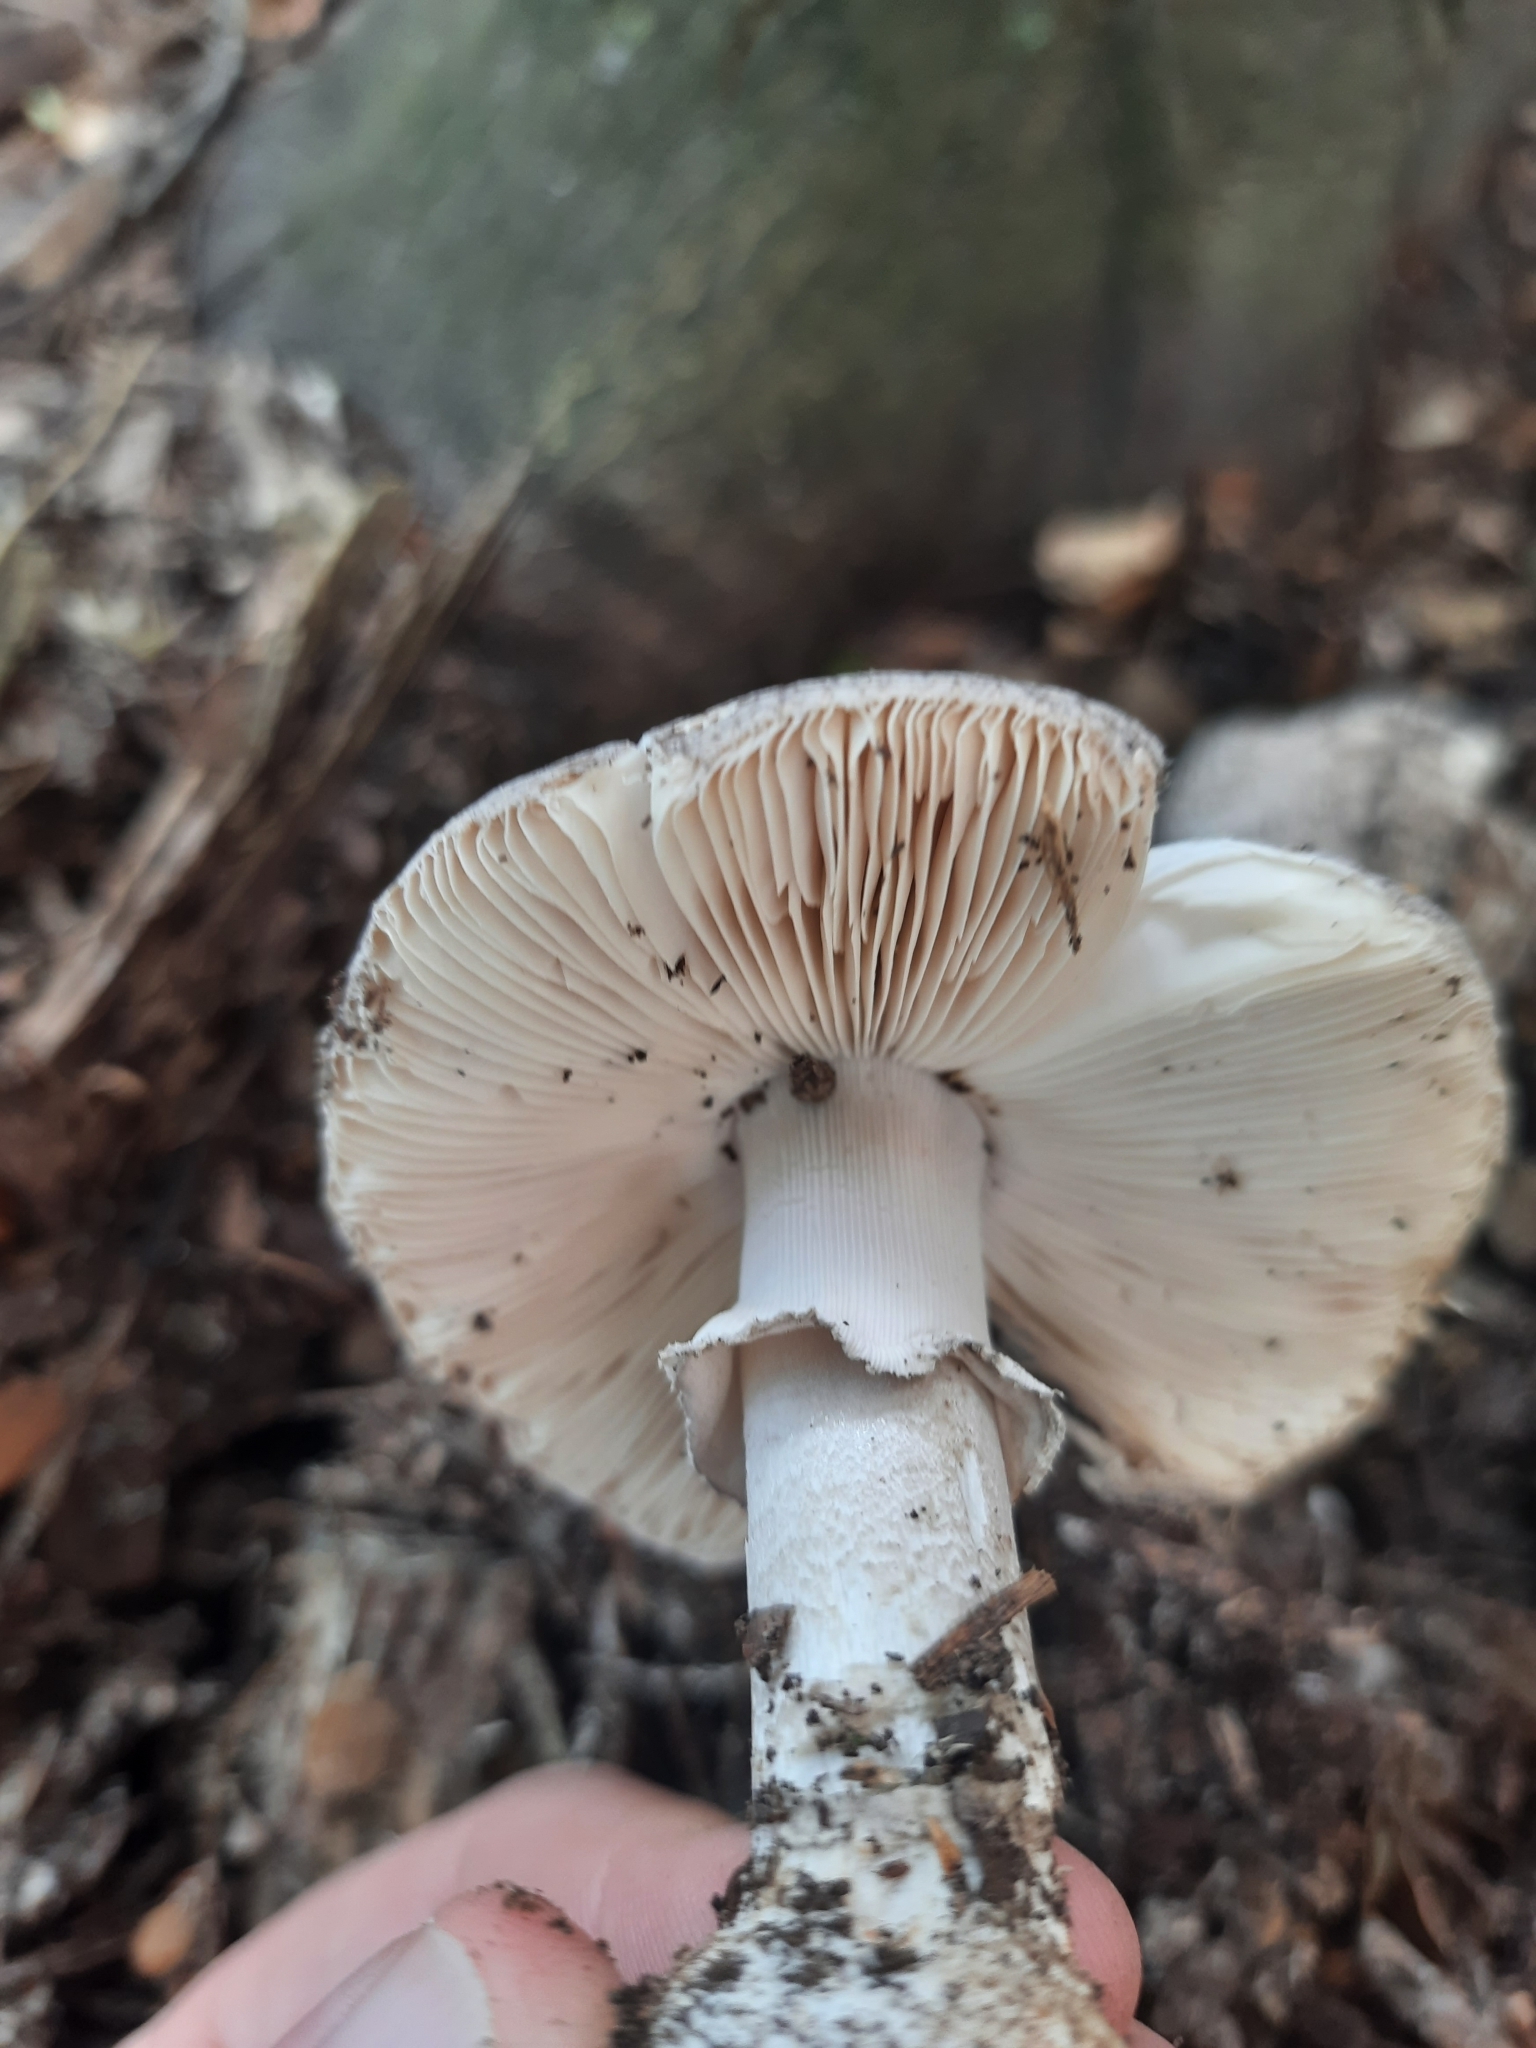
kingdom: Fungi
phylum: Basidiomycota
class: Agaricomycetes
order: Agaricales
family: Amanitaceae
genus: Amanita
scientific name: Amanita excelsa
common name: European false blusher
